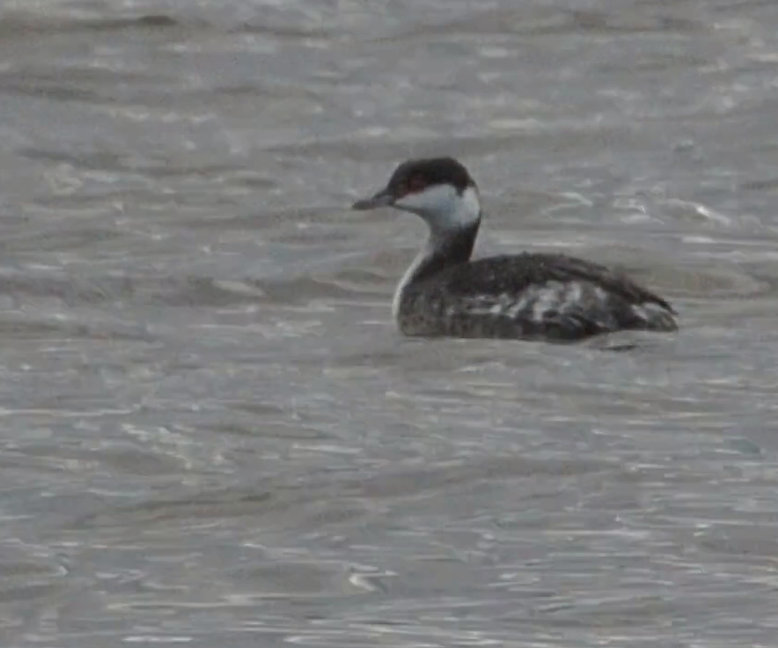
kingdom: Animalia
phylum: Chordata
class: Aves
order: Podicipediformes
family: Podicipedidae
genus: Podiceps
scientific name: Podiceps auritus
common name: Horned grebe
